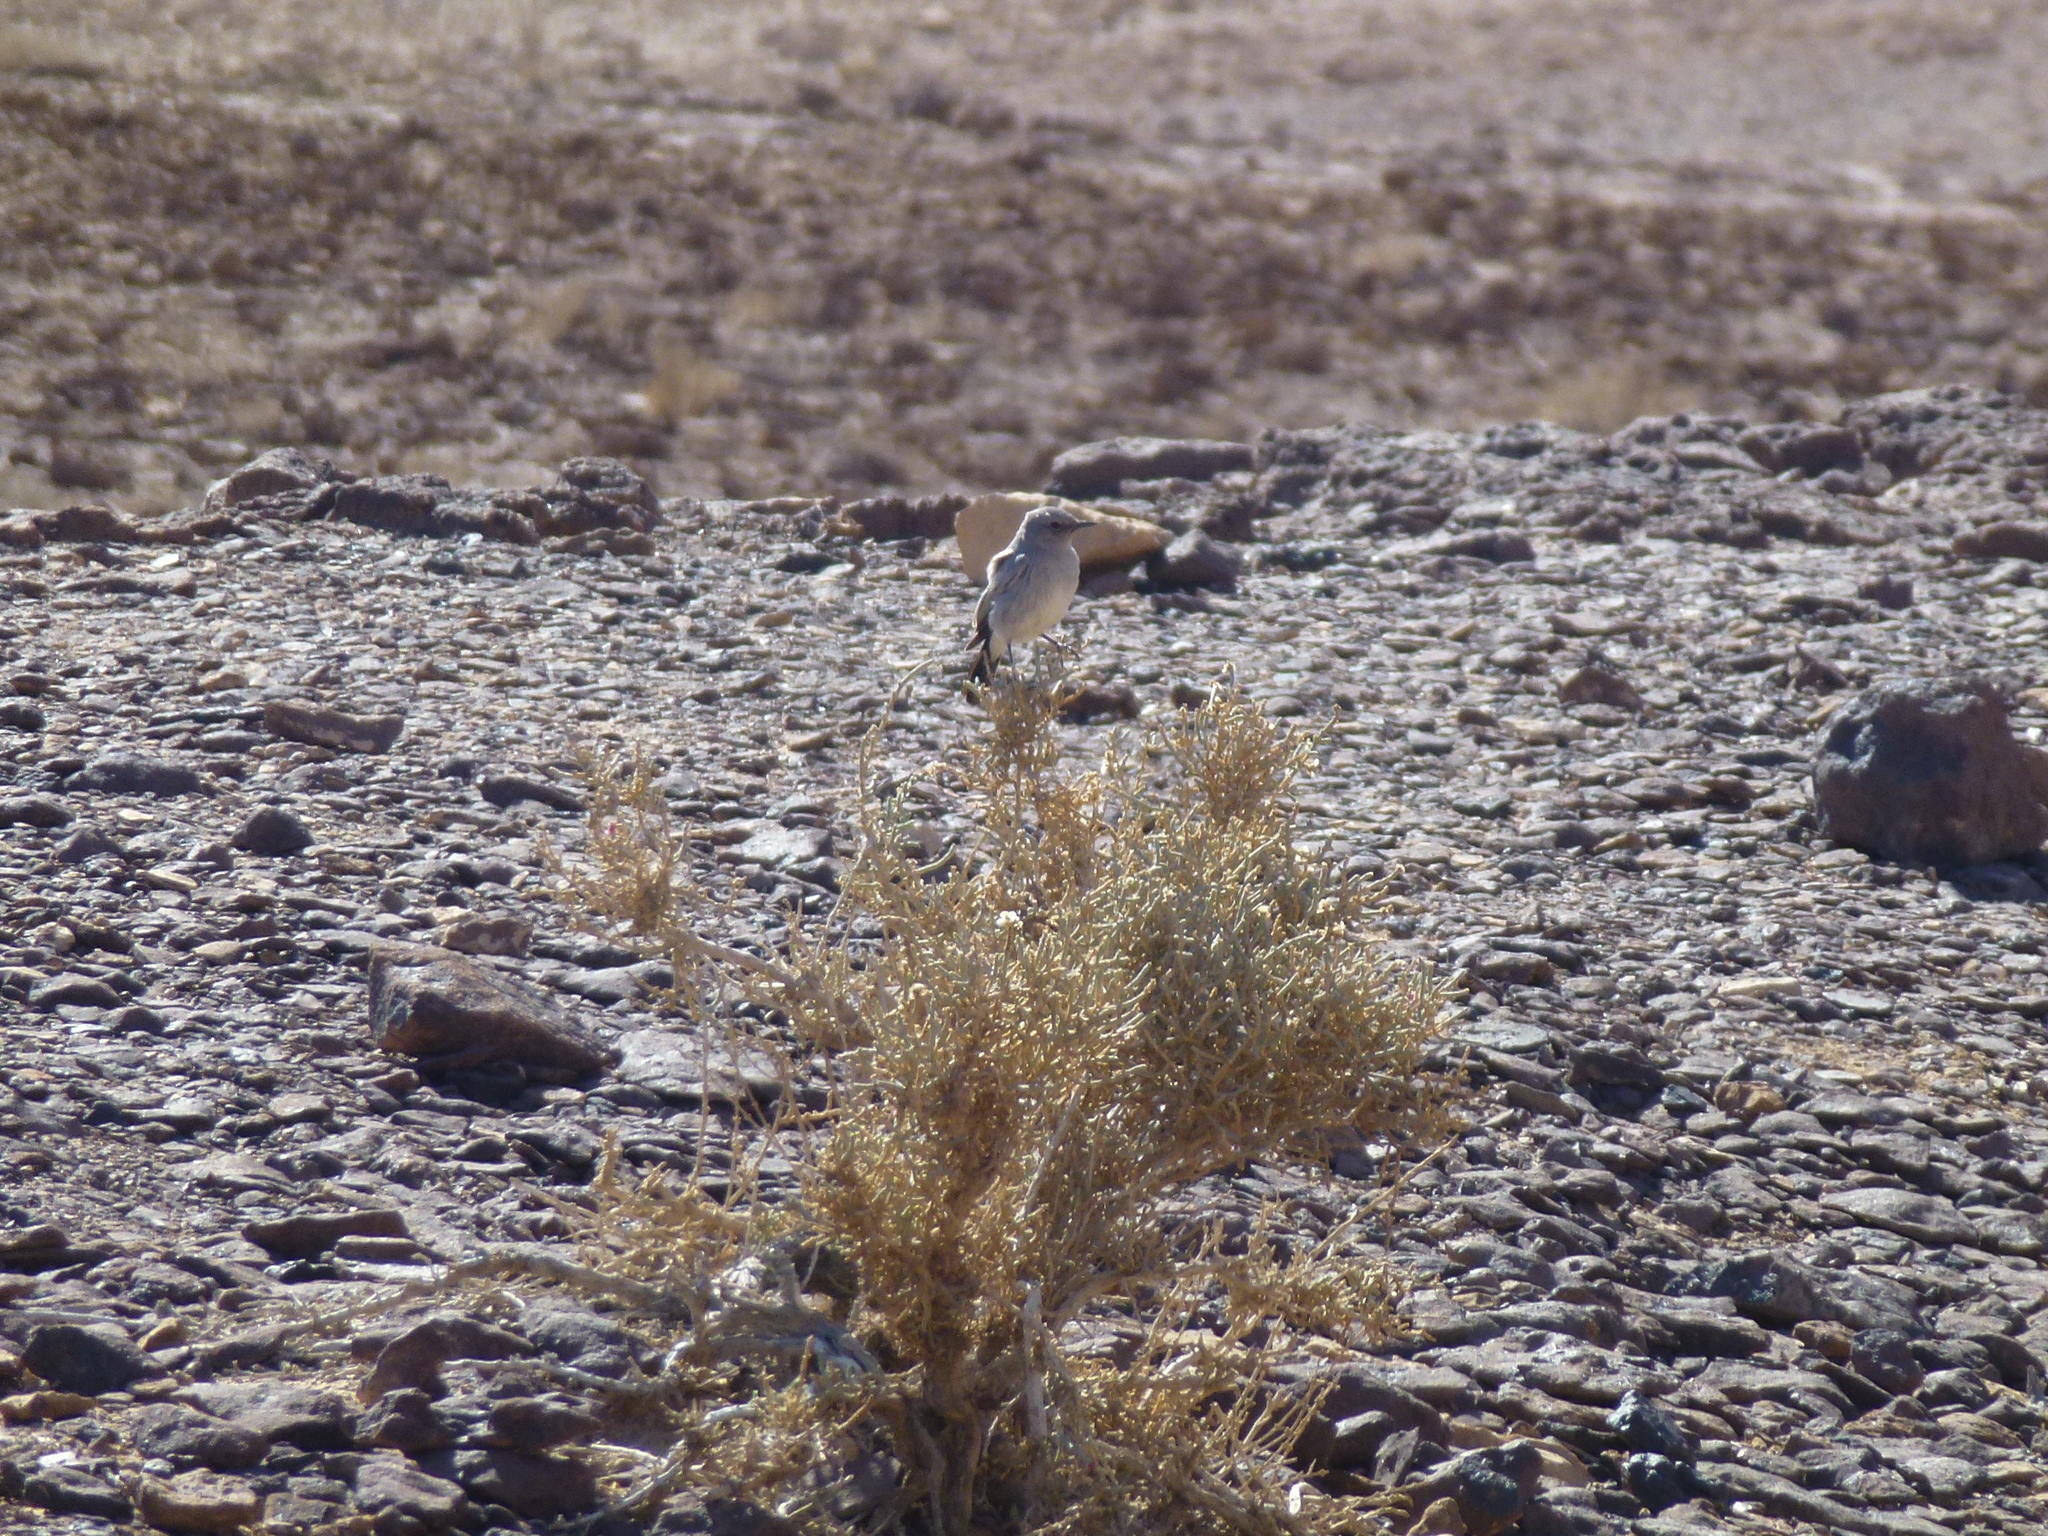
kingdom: Animalia
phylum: Chordata
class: Aves
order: Passeriformes
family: Muscicapidae
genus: Oenanthe
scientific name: Oenanthe melanura
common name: Blackstart
